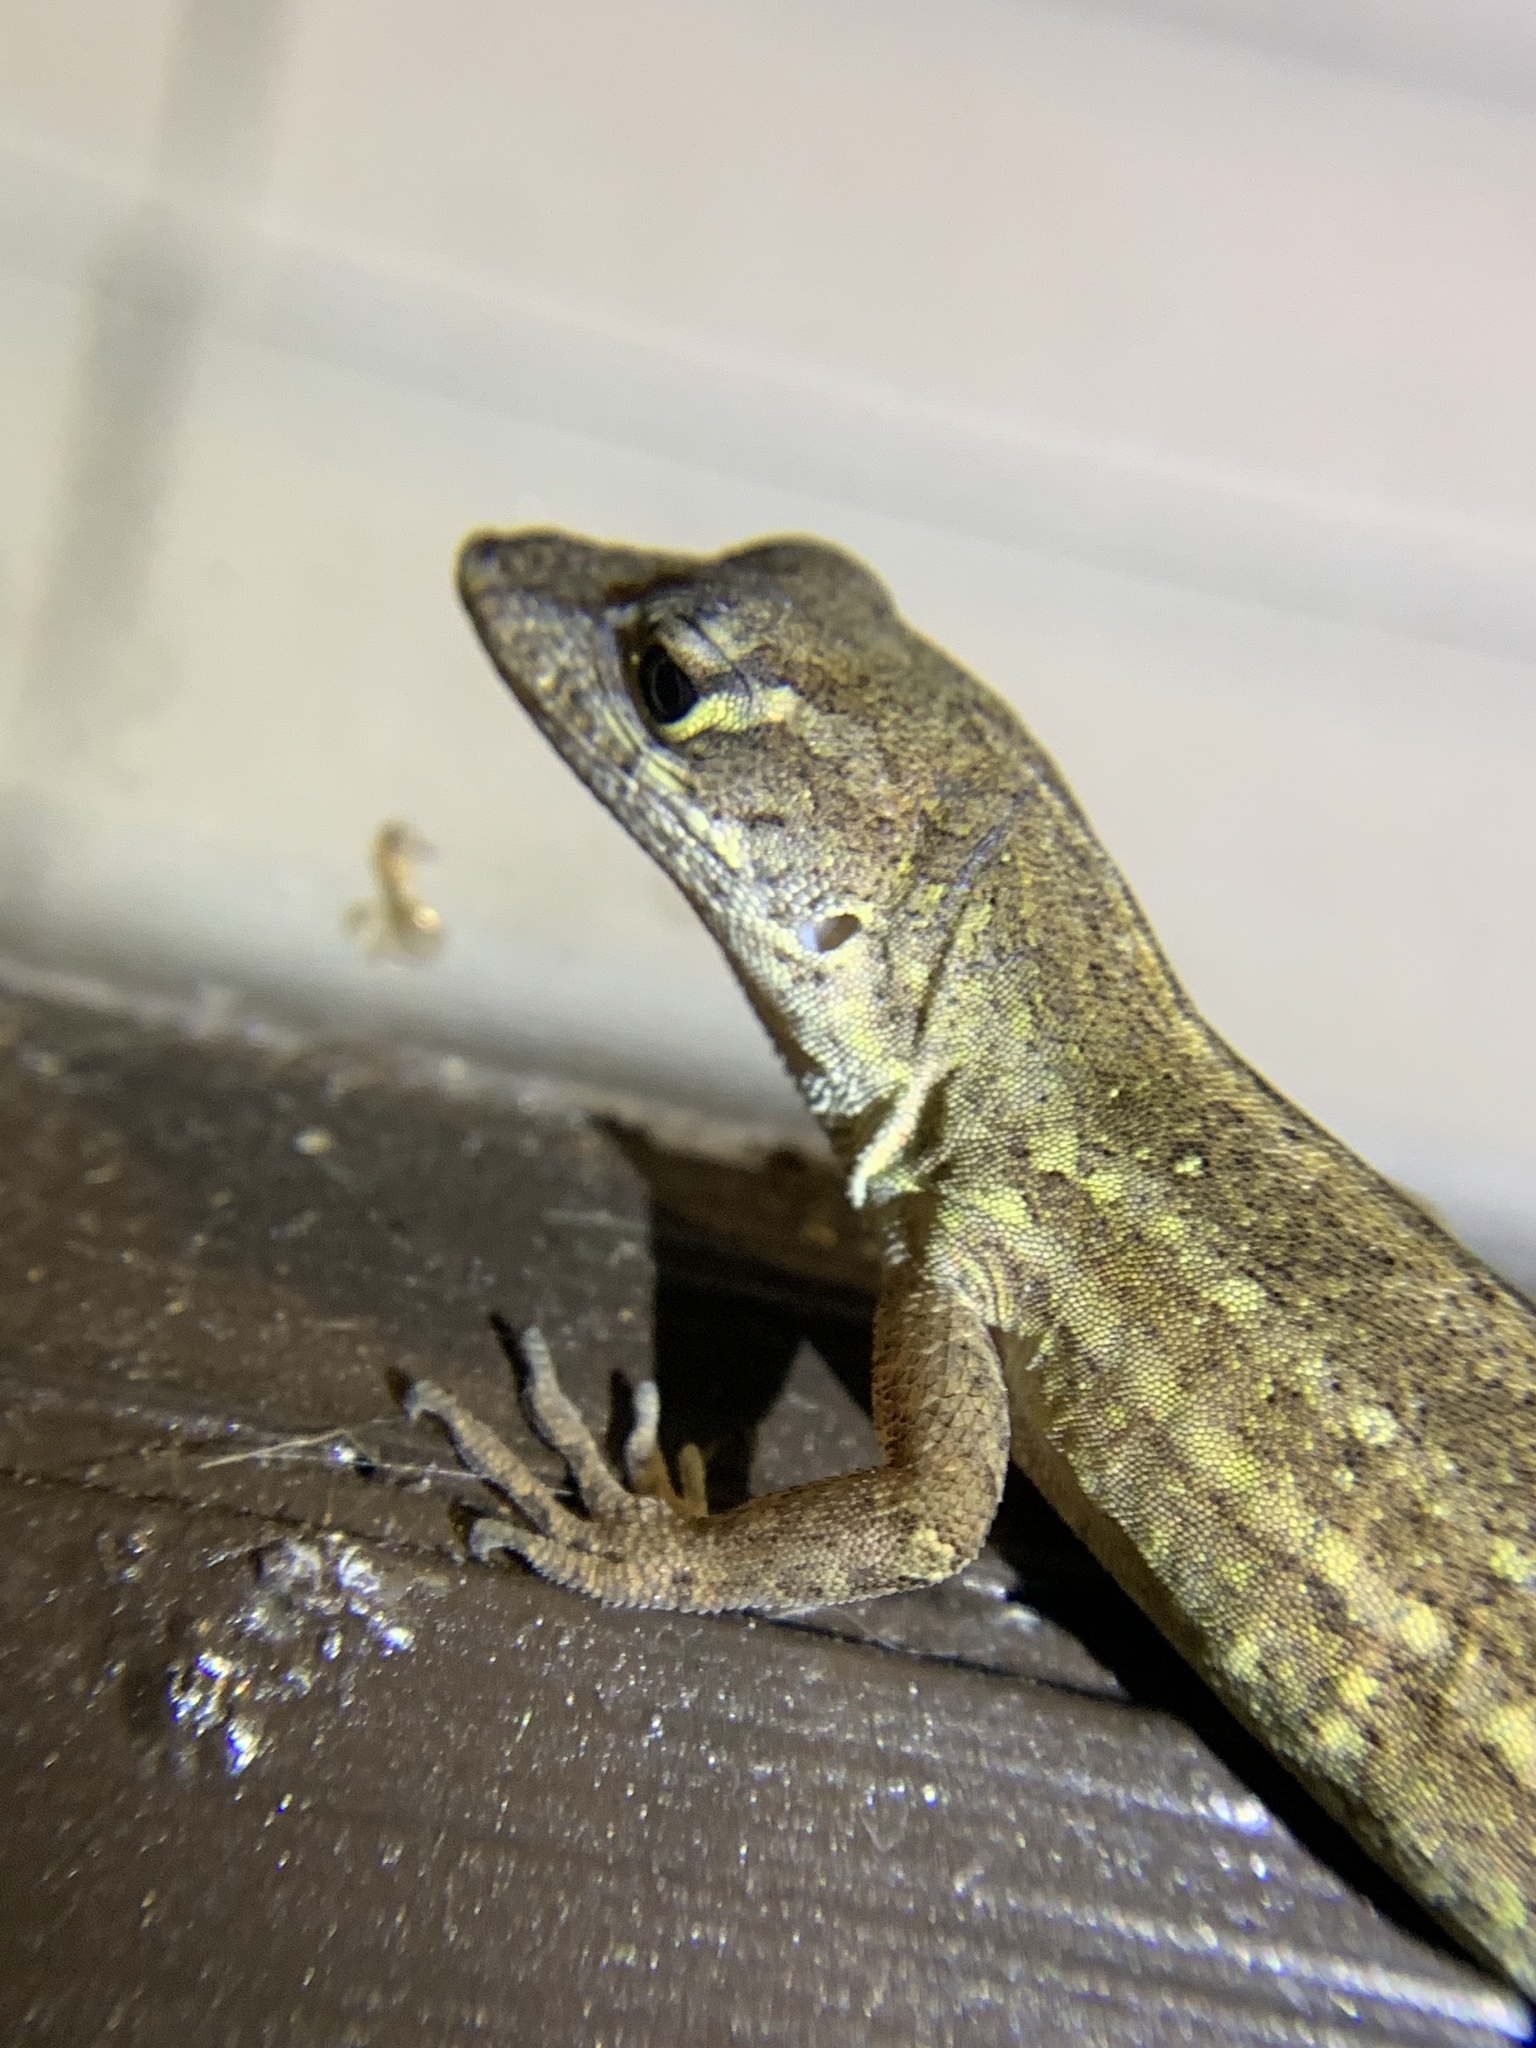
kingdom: Animalia
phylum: Chordata
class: Squamata
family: Dactyloidae
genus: Anolis
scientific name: Anolis sagrei
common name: Brown anole
